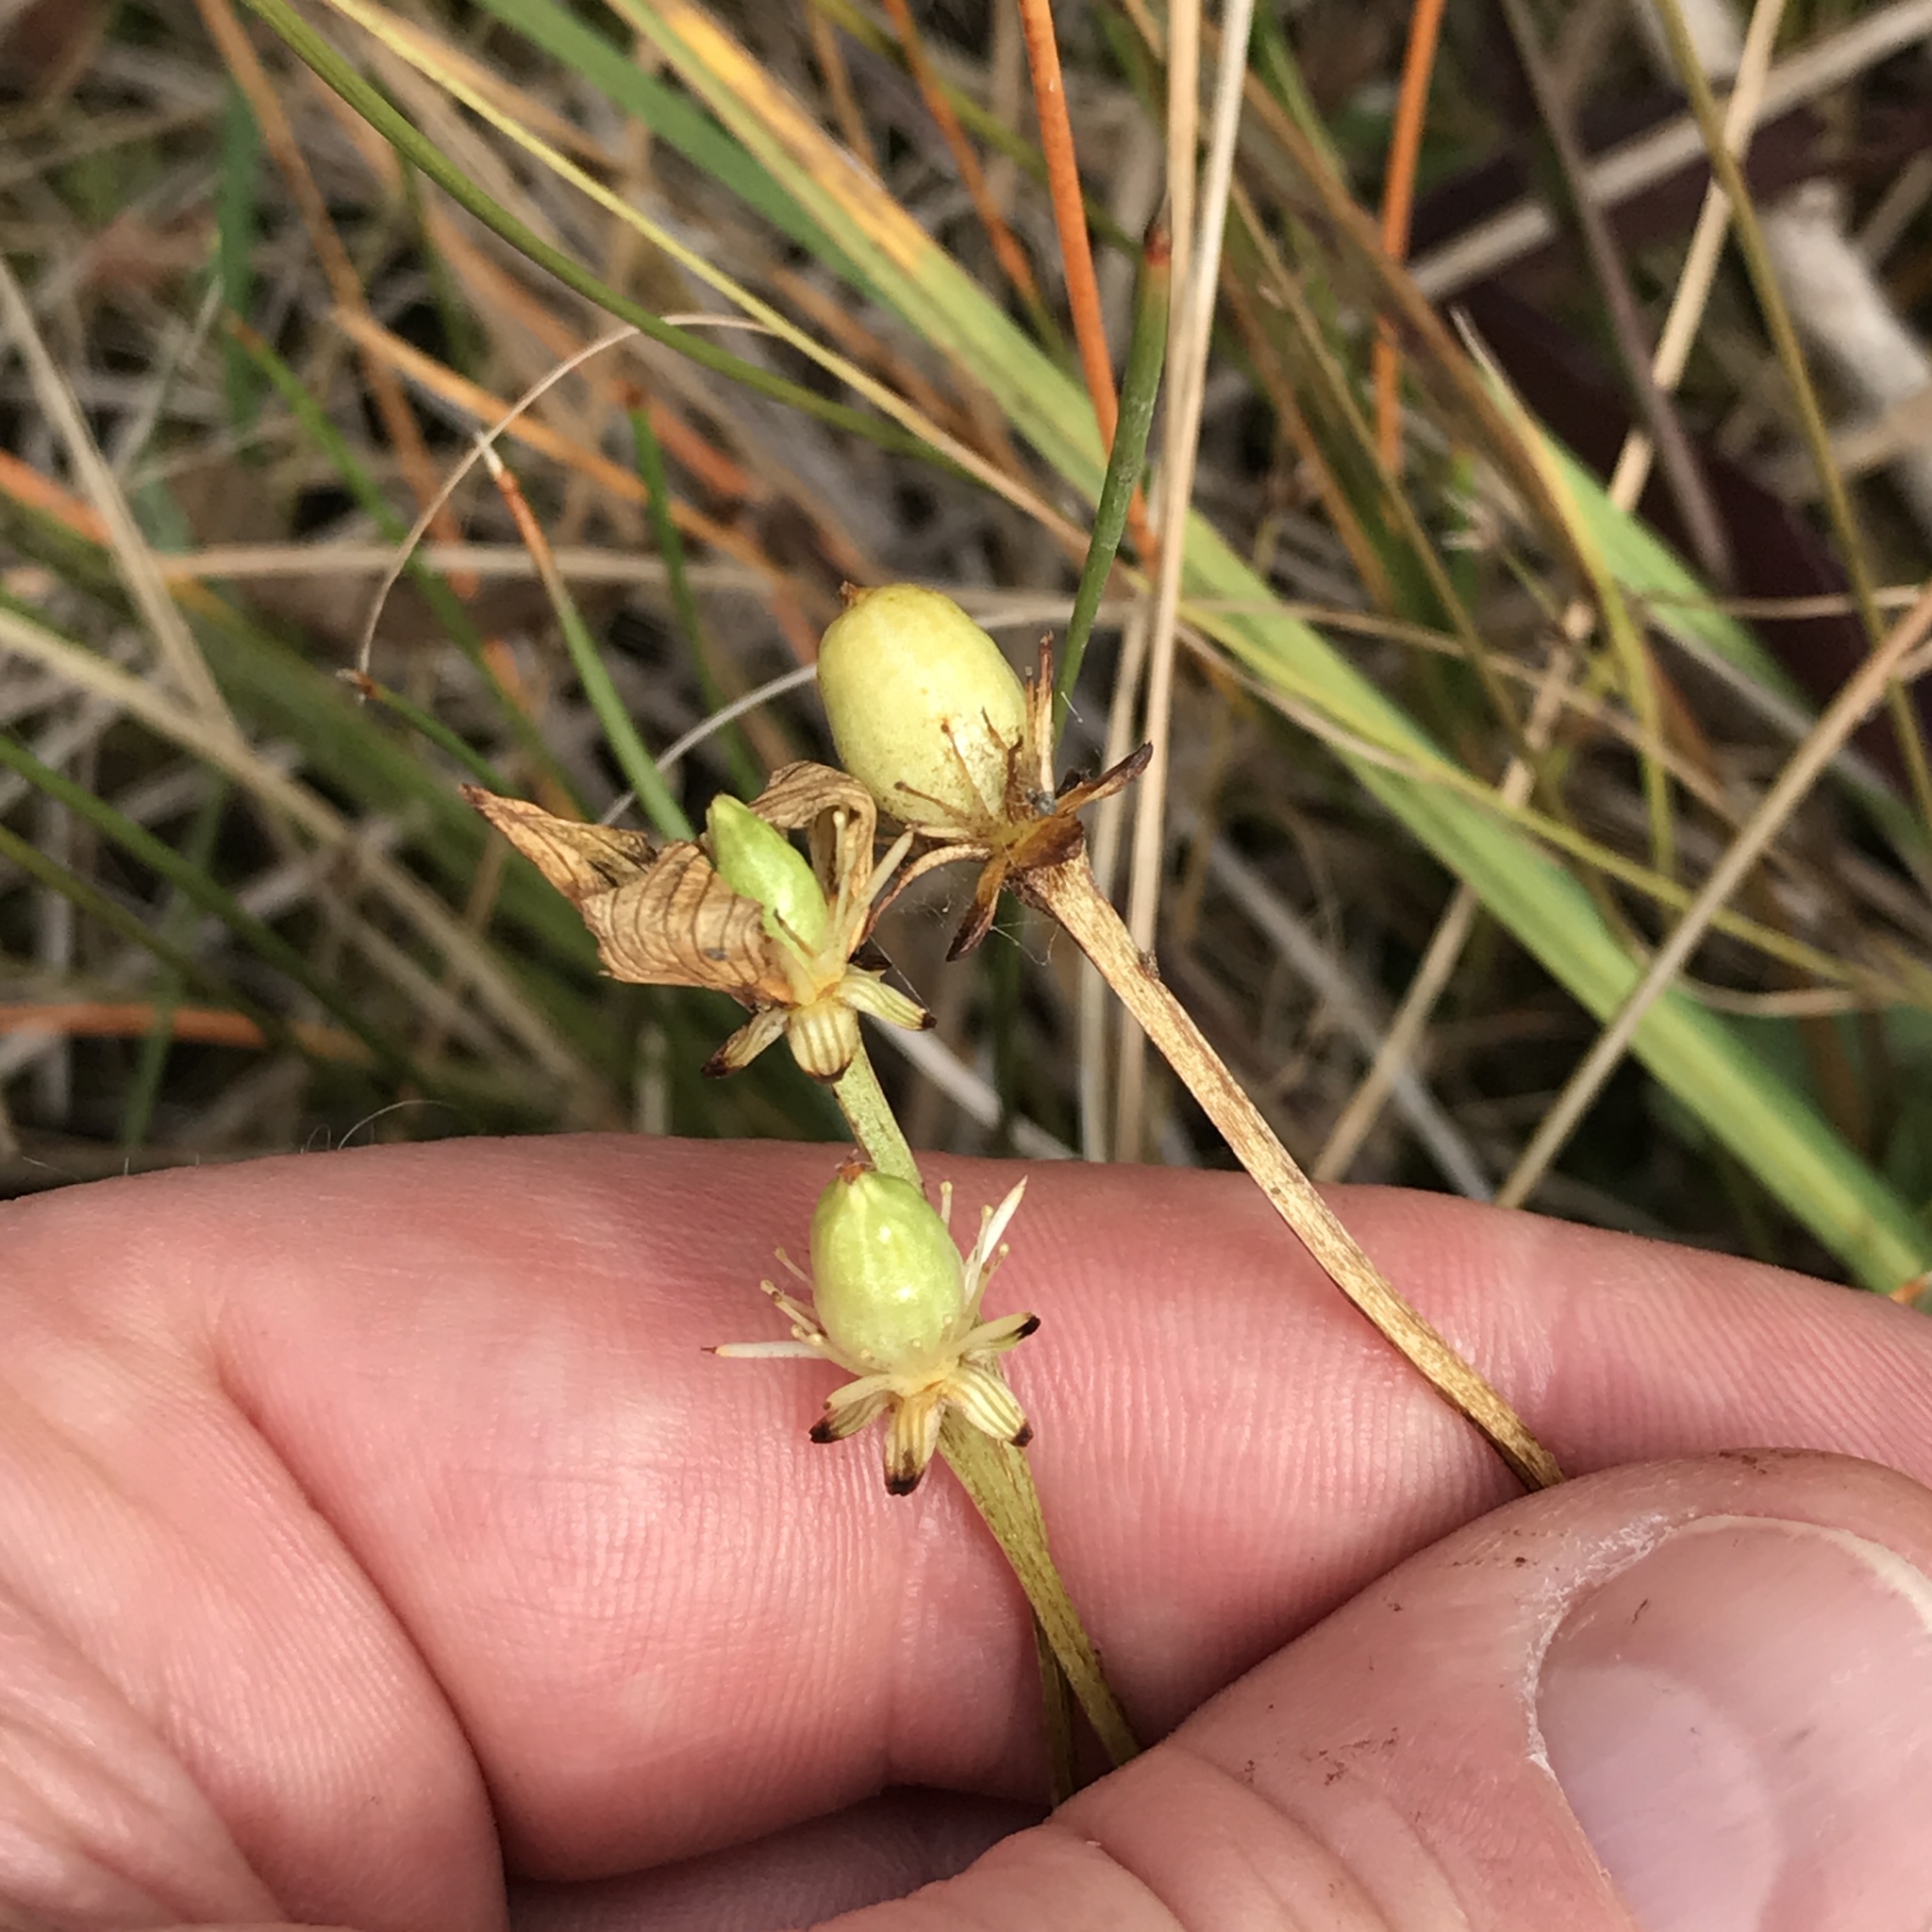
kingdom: Plantae
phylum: Tracheophyta
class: Magnoliopsida
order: Celastrales
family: Parnassiaceae
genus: Parnassia
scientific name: Parnassia glauca
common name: American grass-of-parnassus
